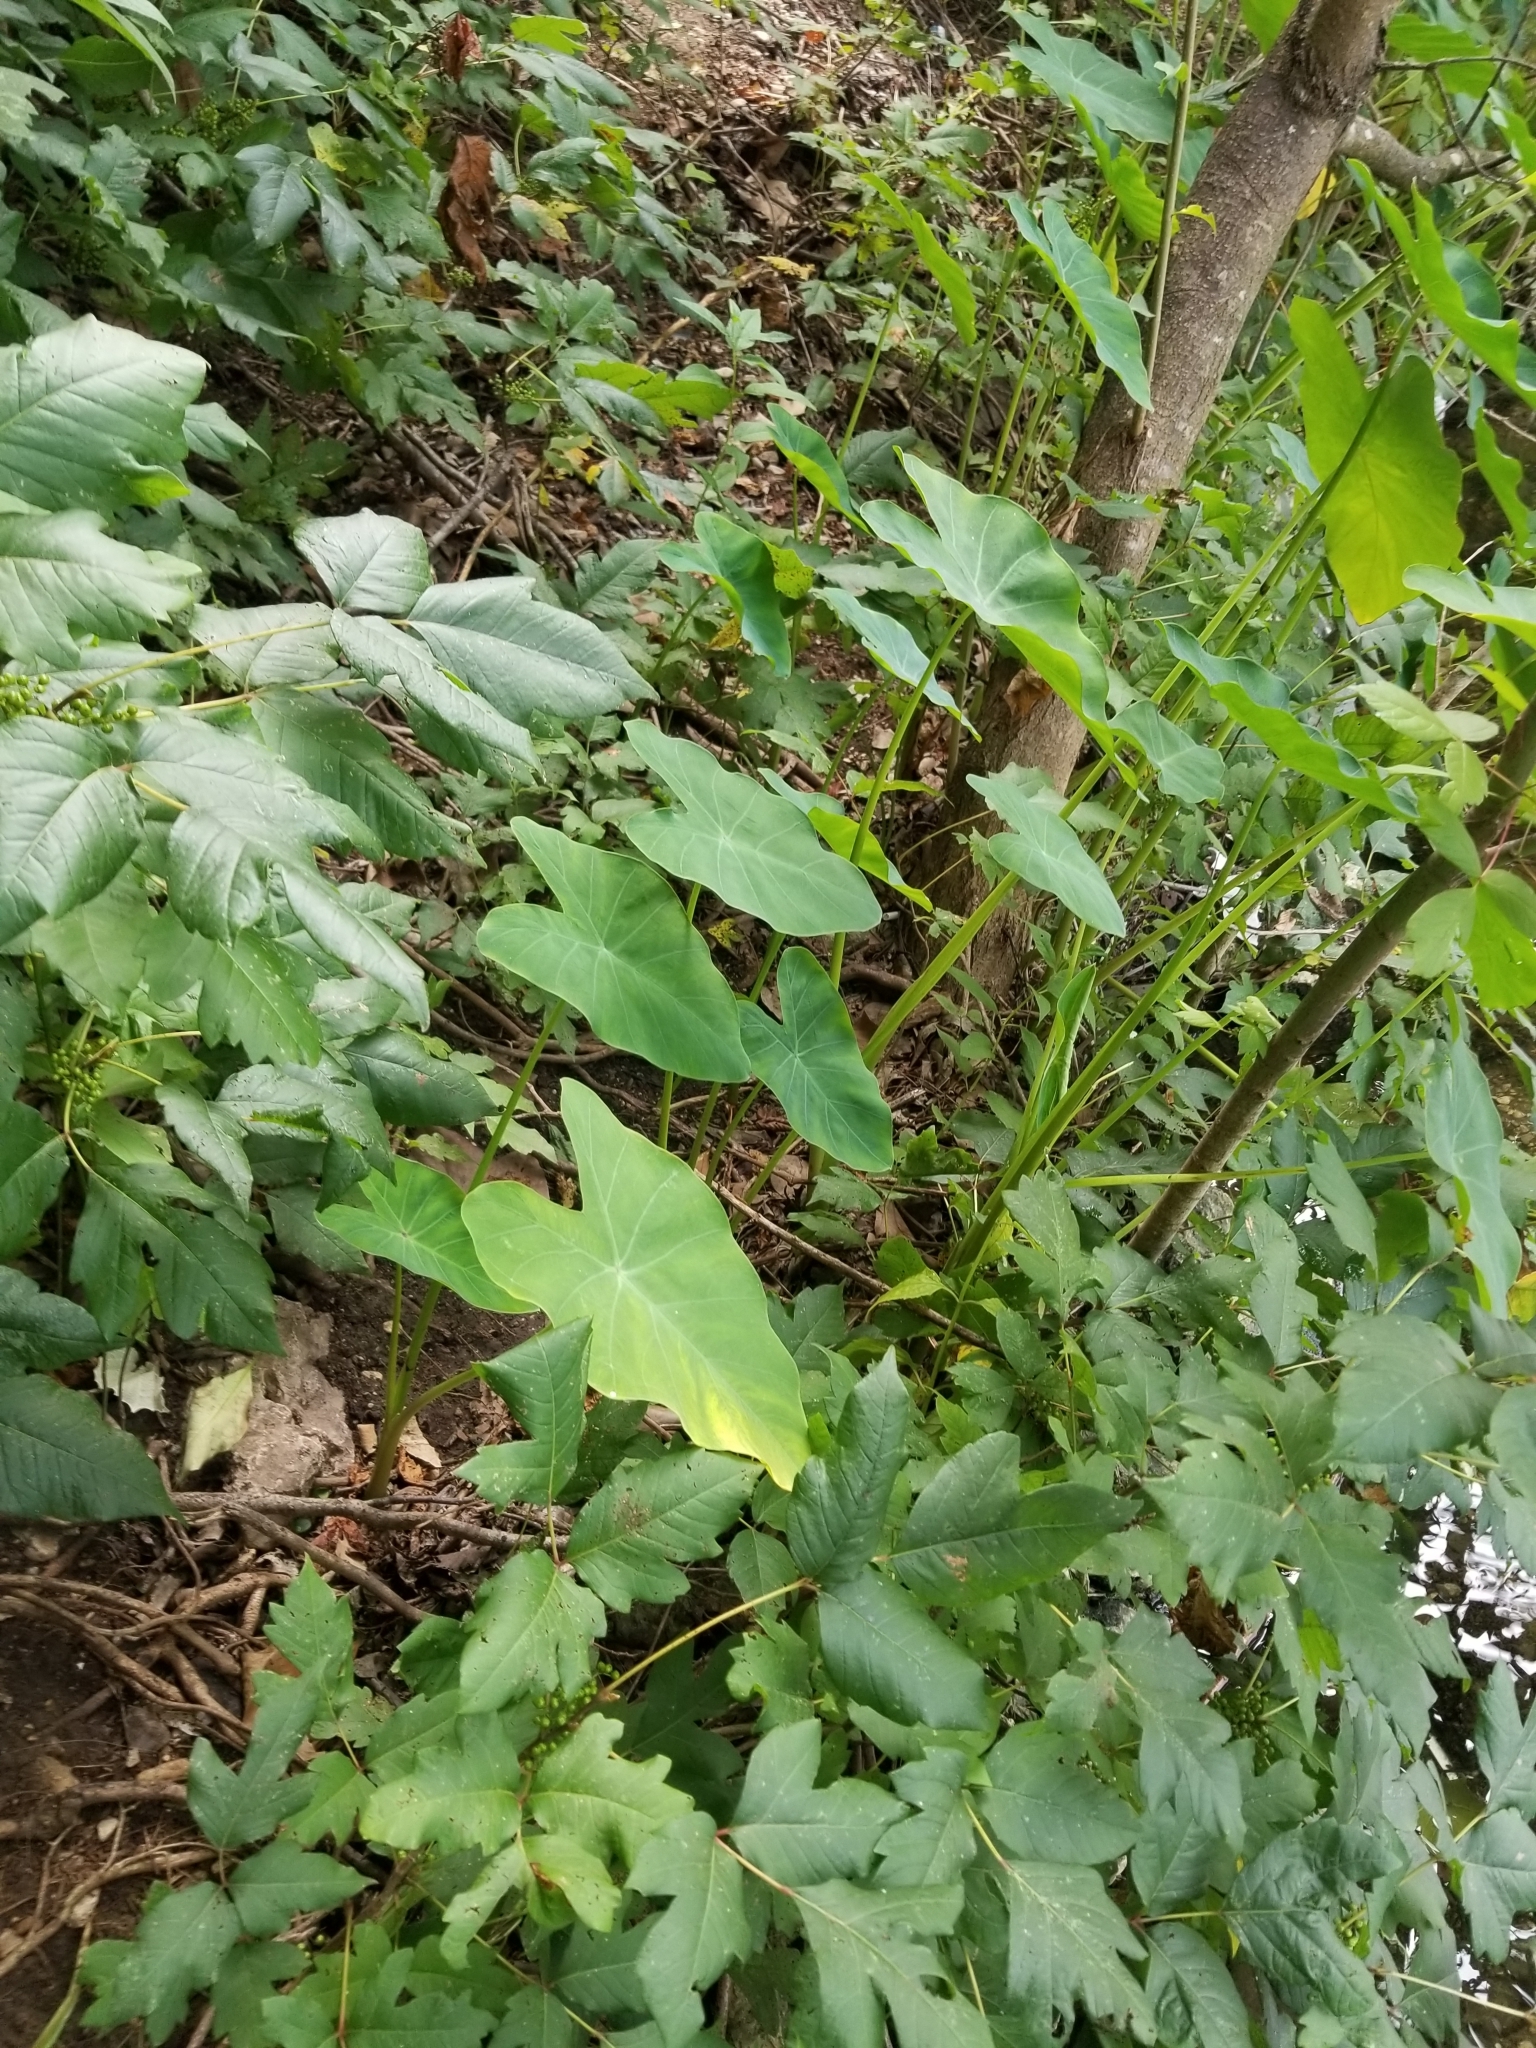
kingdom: Plantae
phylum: Tracheophyta
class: Liliopsida
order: Alismatales
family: Araceae
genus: Colocasia
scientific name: Colocasia esculenta
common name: Taro
